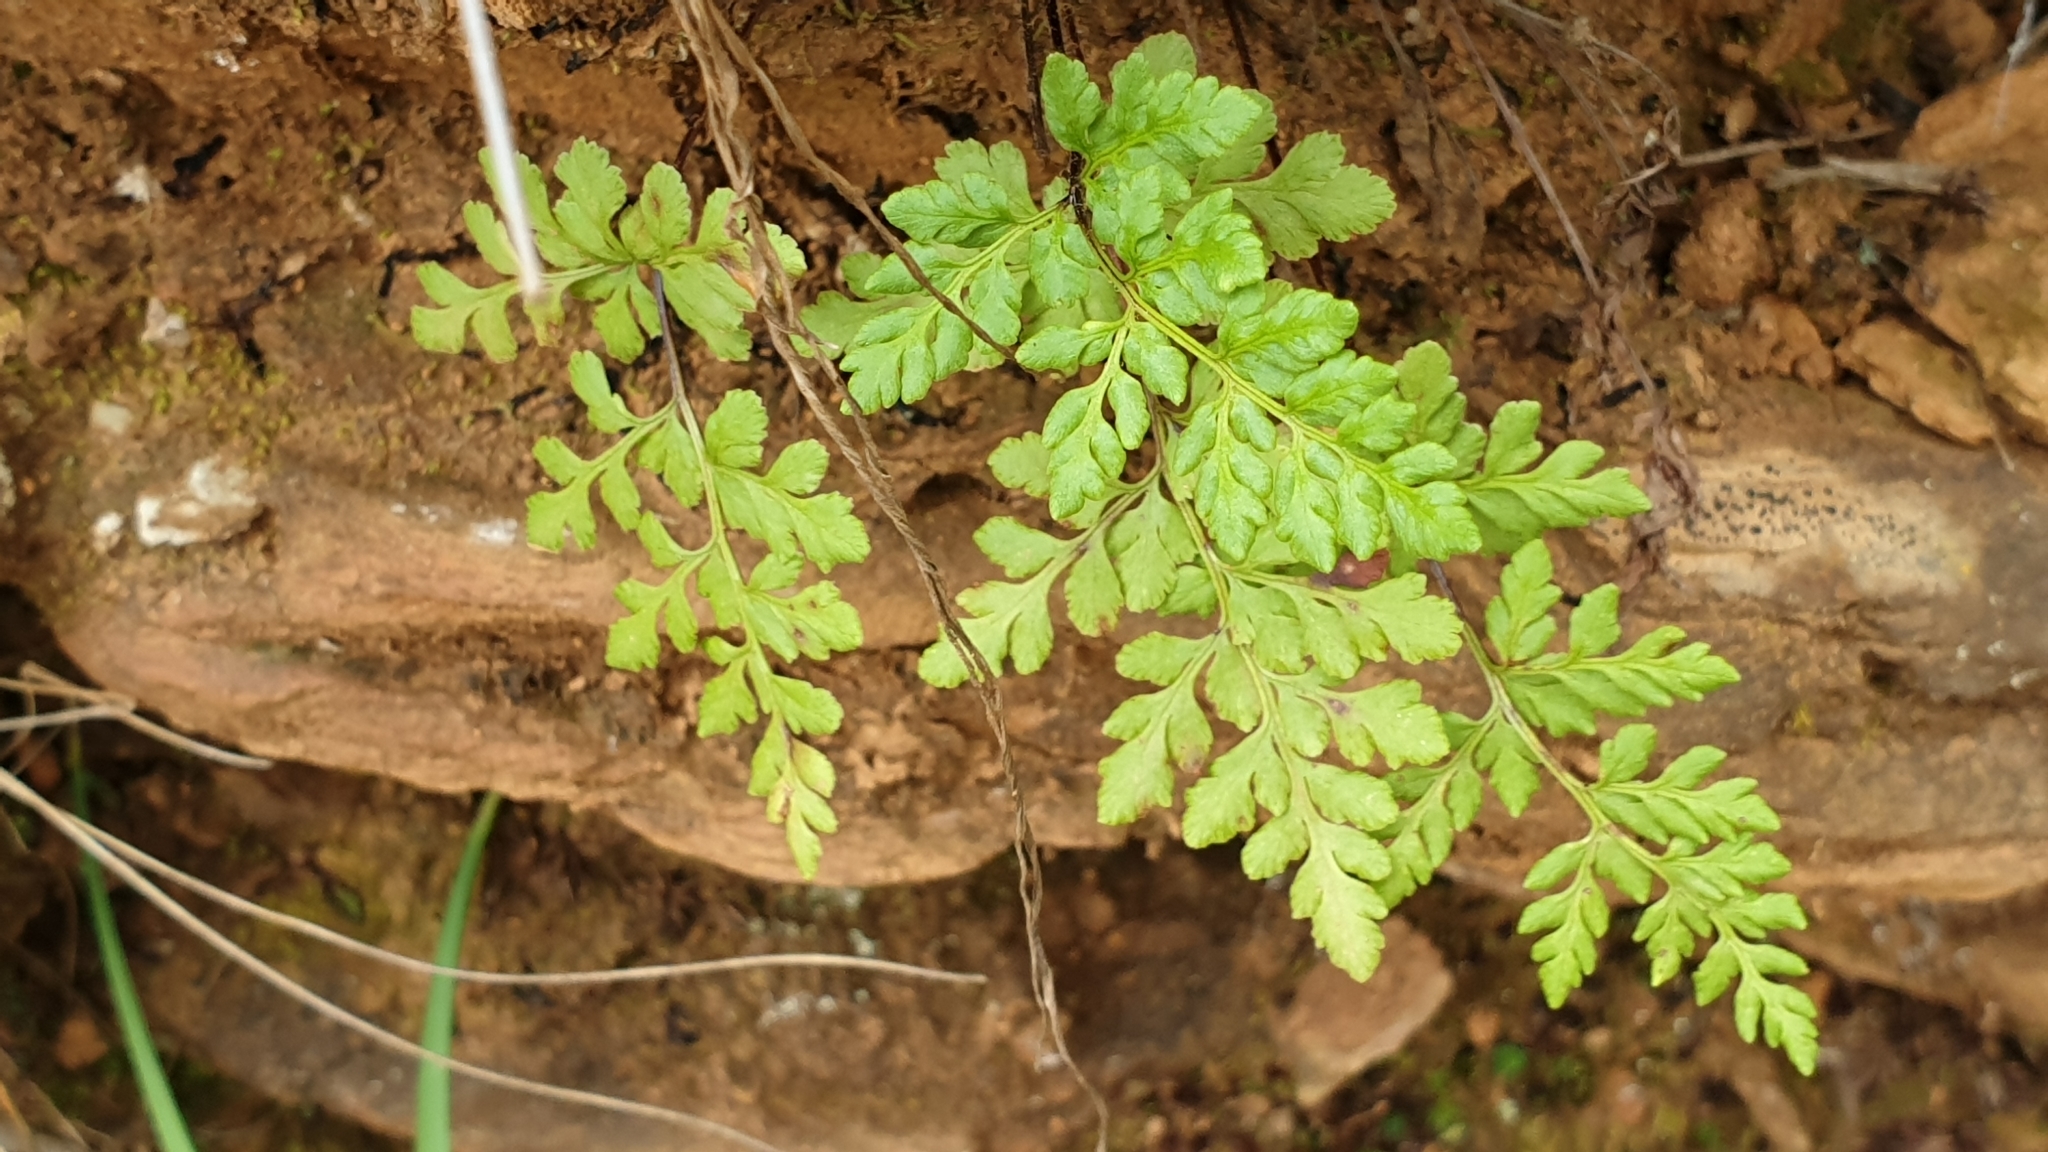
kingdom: Plantae
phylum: Tracheophyta
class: Polypodiopsida
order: Polypodiales
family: Pteridaceae
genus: Cheilanthes
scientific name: Cheilanthes austrotenuifolia
